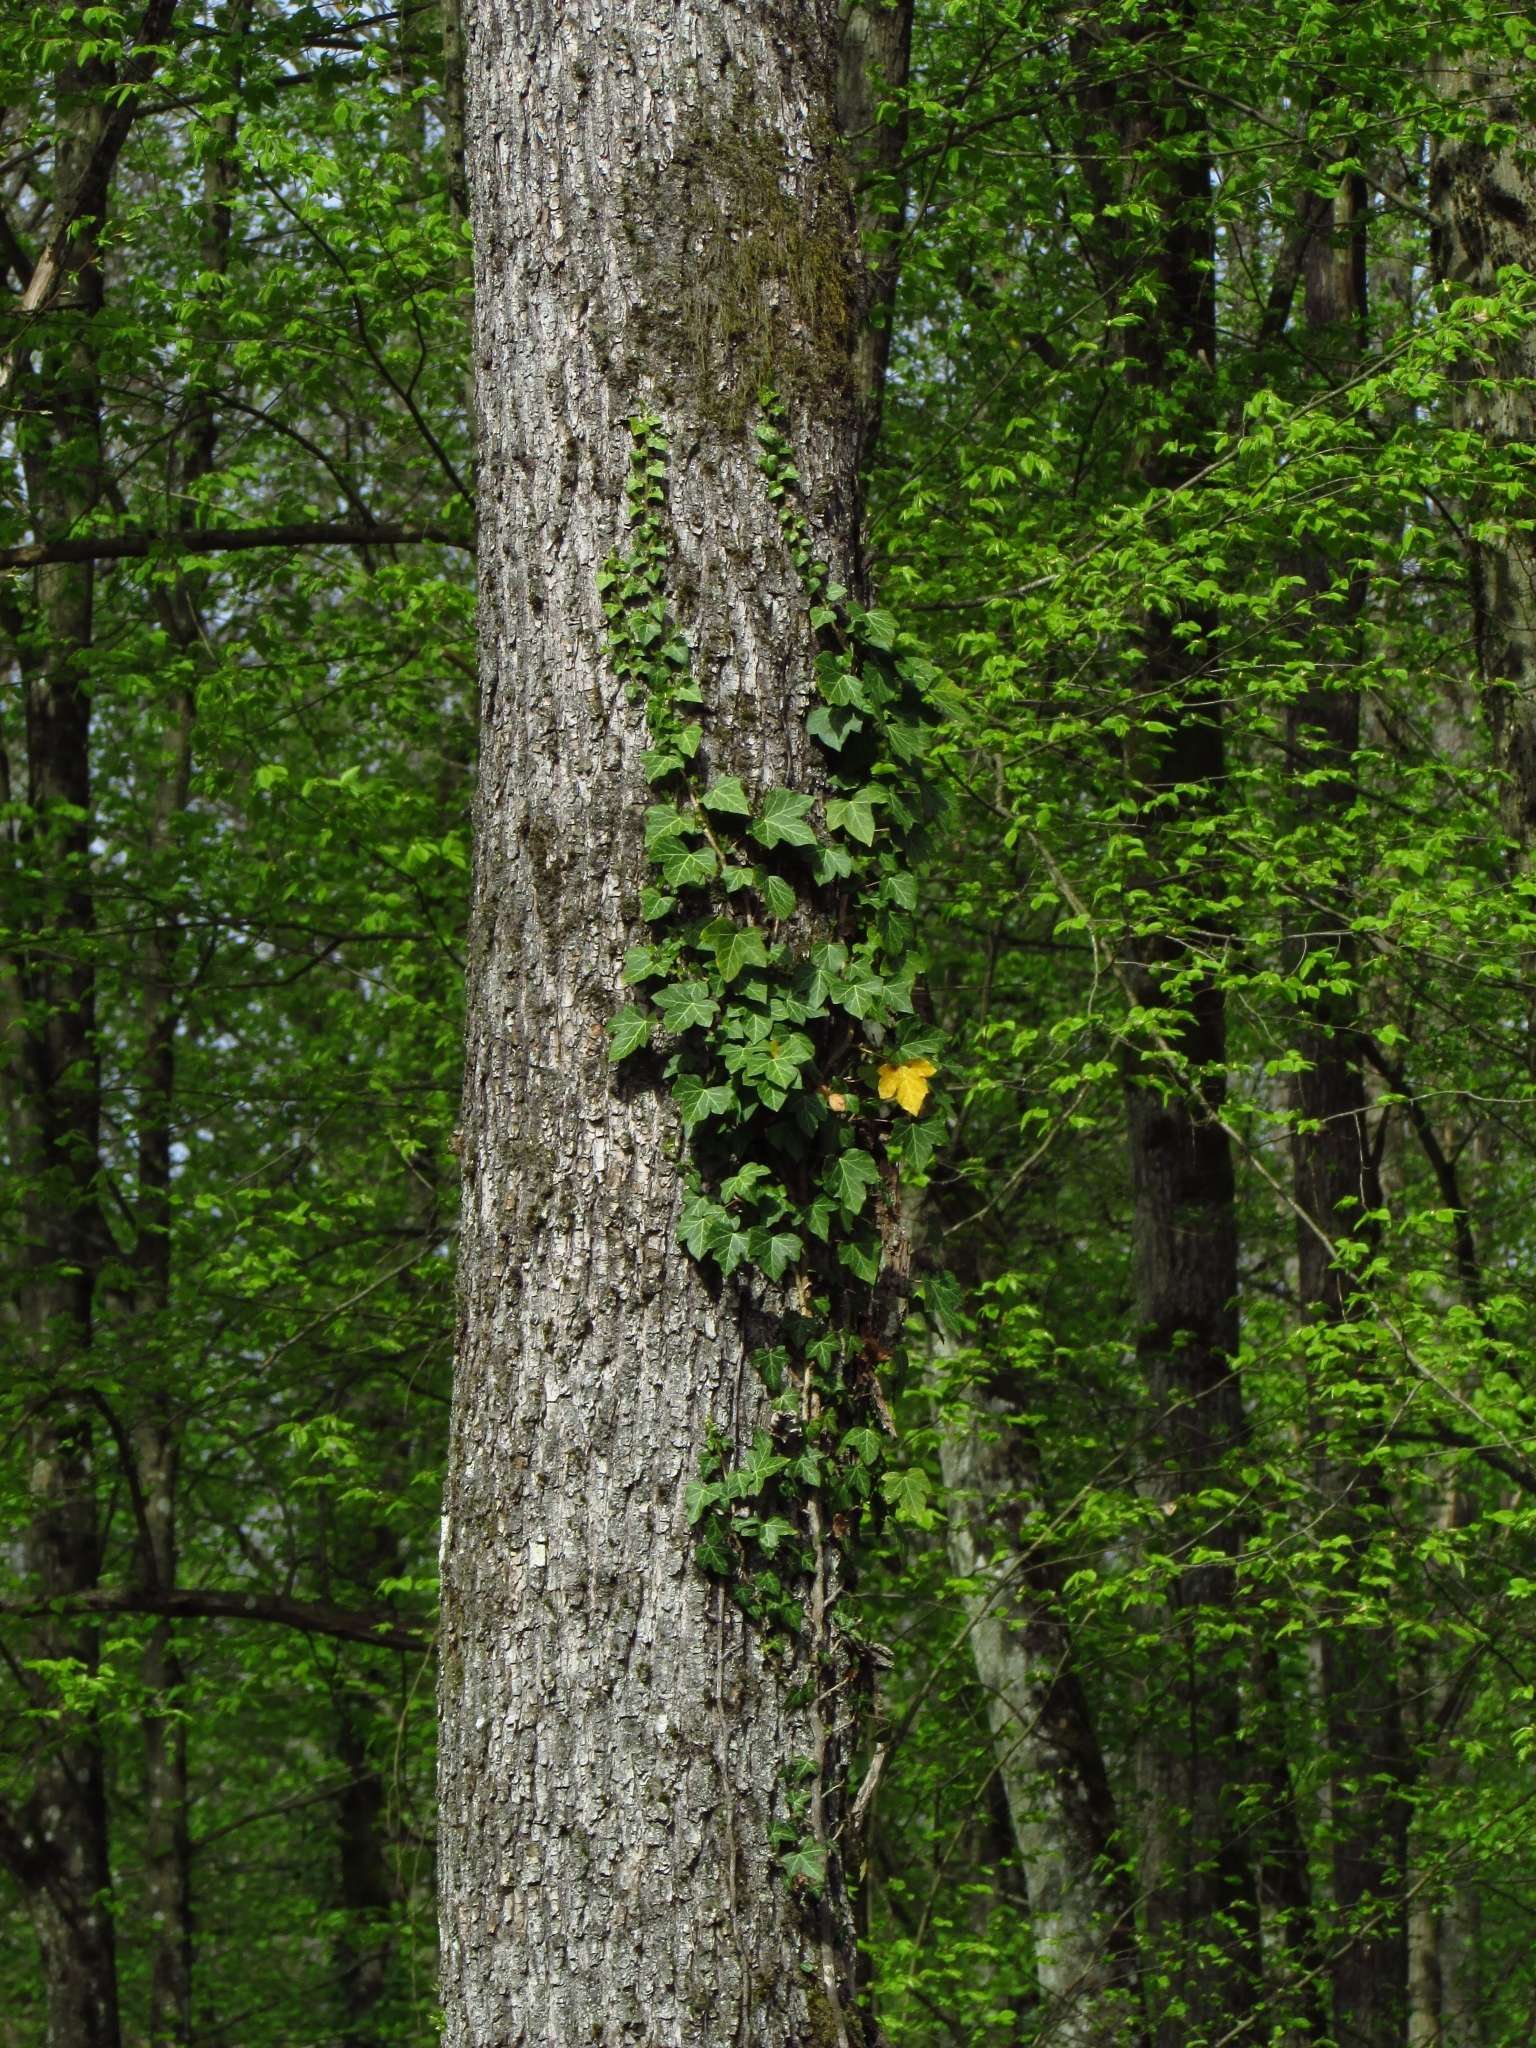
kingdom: Plantae
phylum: Tracheophyta
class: Magnoliopsida
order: Apiales
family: Araliaceae
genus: Hedera
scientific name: Hedera helix
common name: Ivy
